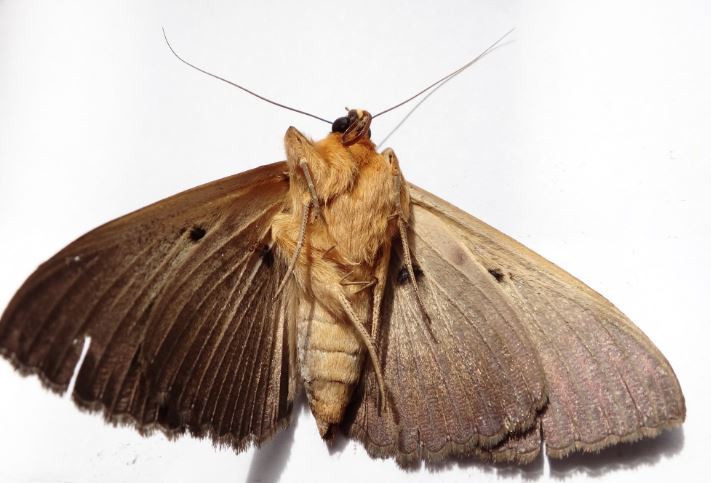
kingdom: Animalia
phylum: Arthropoda
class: Insecta
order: Lepidoptera
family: Erebidae
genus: Dasypodia
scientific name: Dasypodia selenophora
